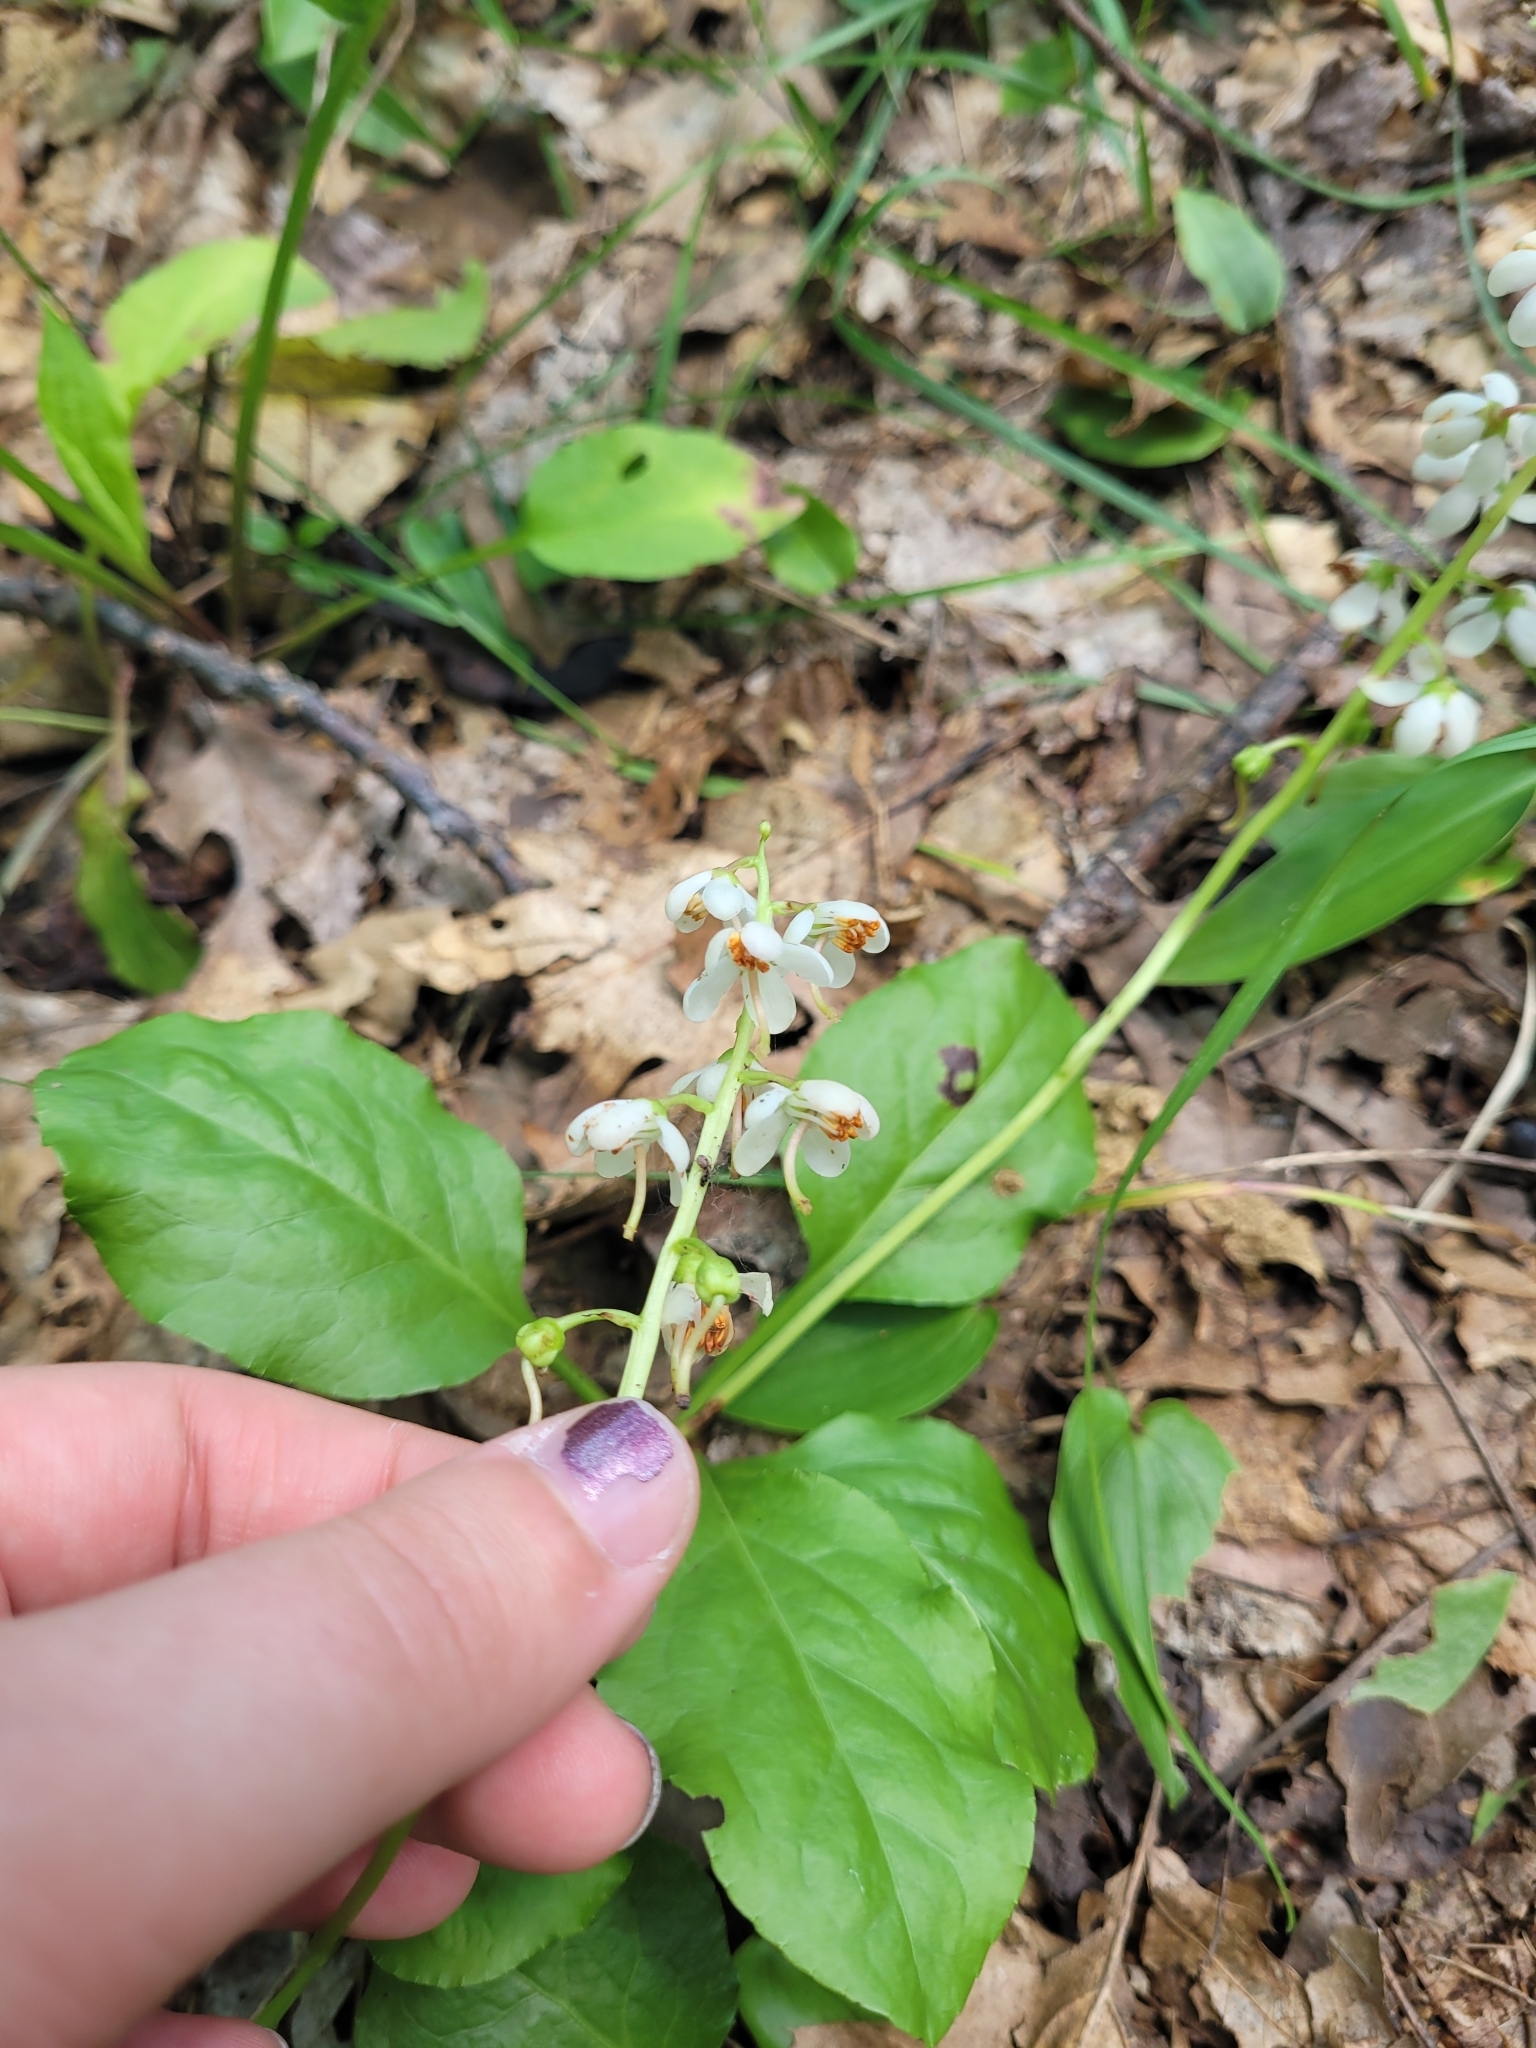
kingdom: Plantae
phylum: Tracheophyta
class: Magnoliopsida
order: Ericales
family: Ericaceae
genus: Pyrola
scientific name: Pyrola elliptica
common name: Shinleaf
